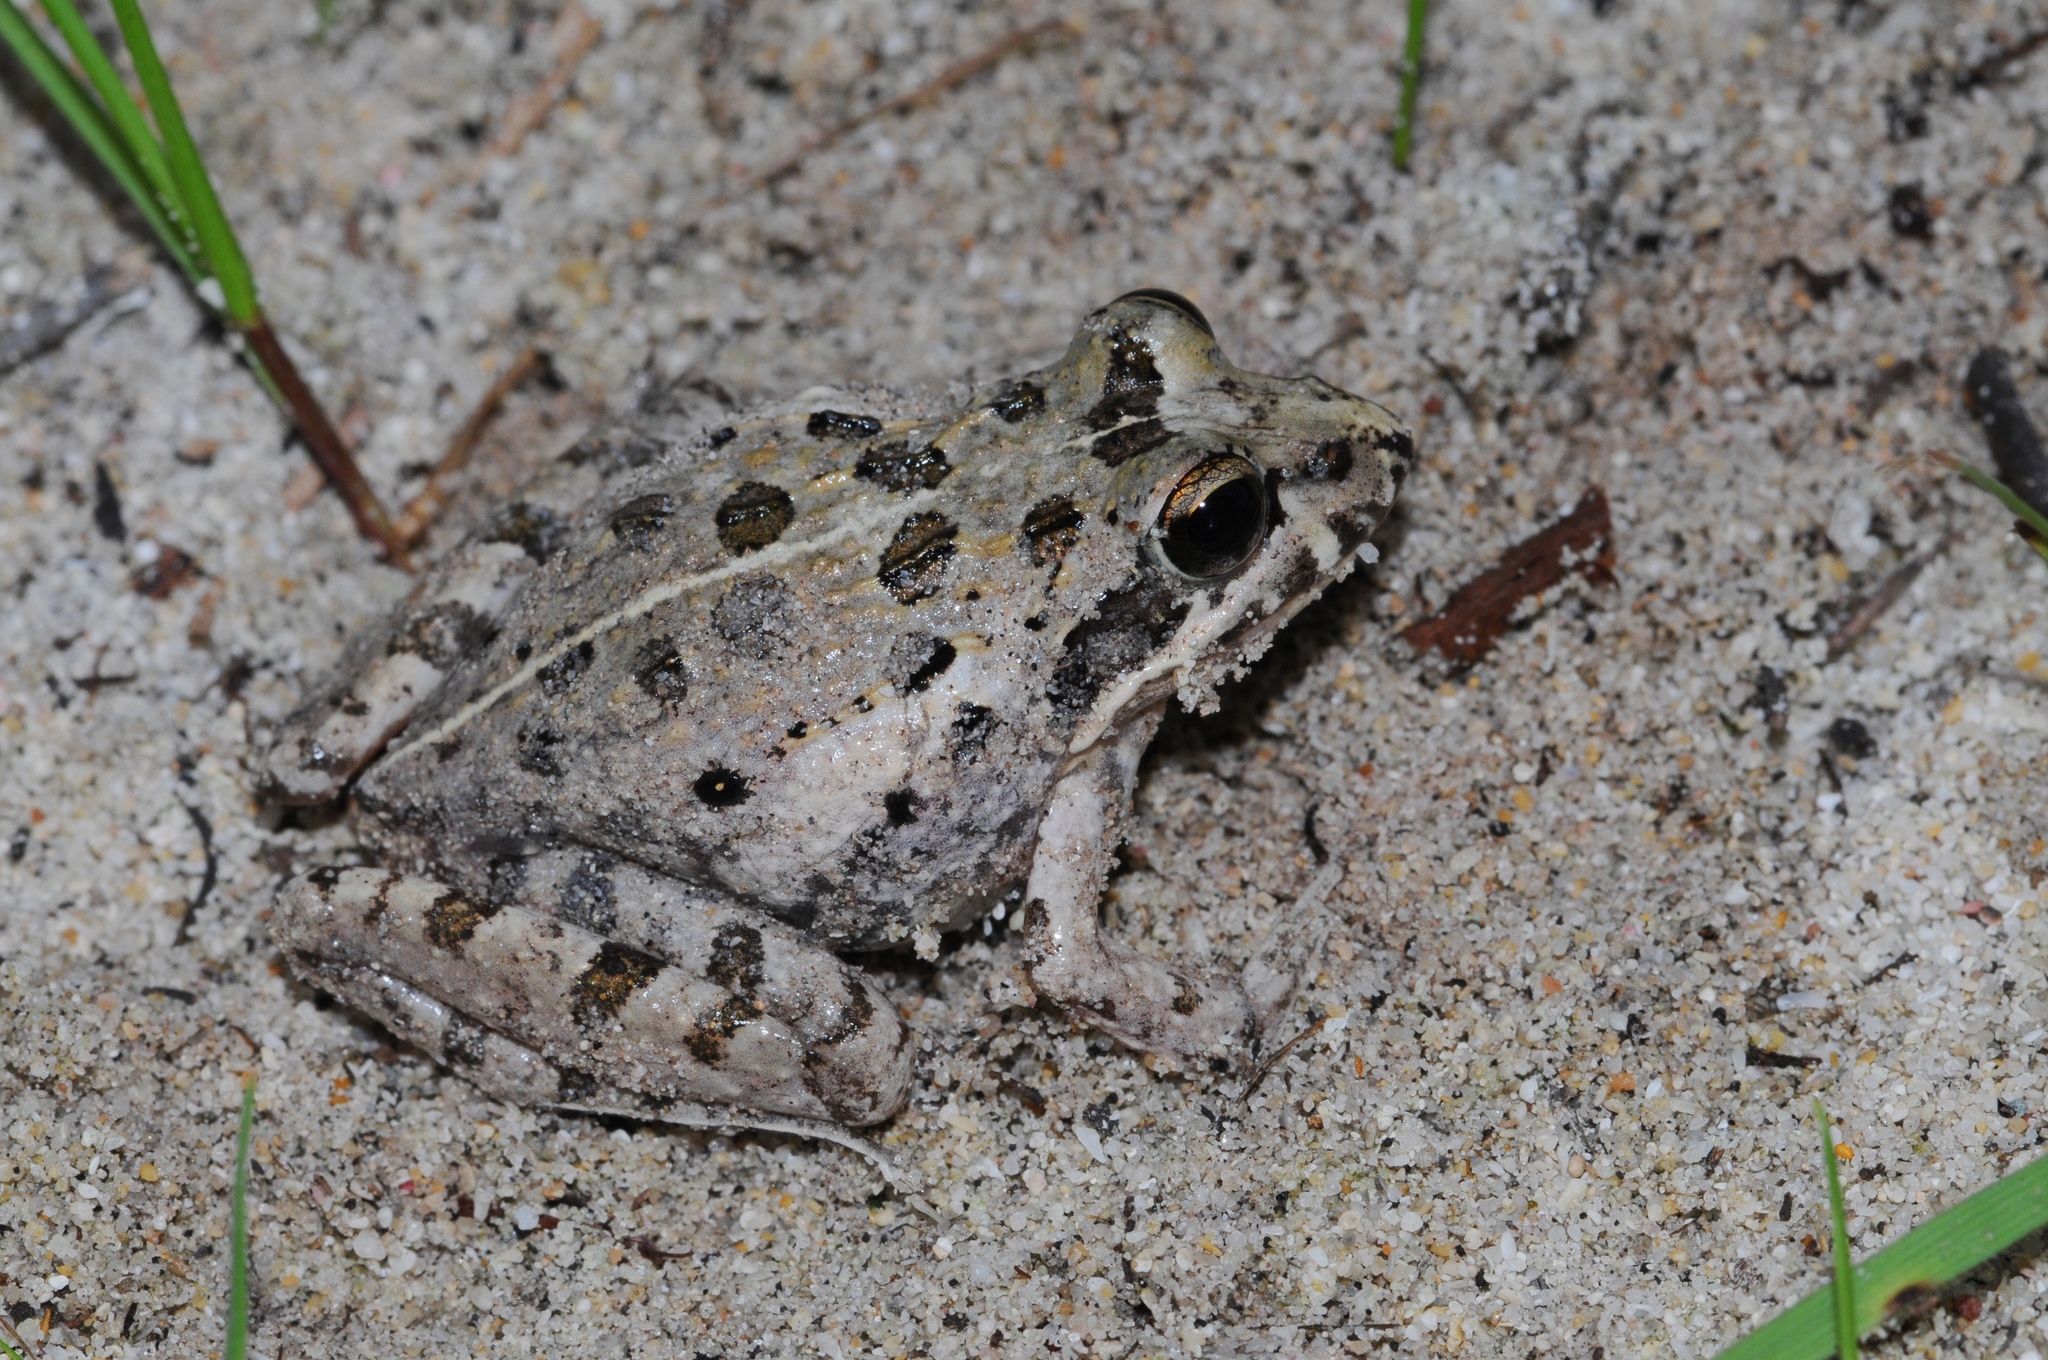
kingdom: Animalia
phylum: Chordata
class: Amphibia
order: Anura
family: Pyxicephalidae
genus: Strongylopus
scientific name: Strongylopus grayii
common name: Gray's stream frog
